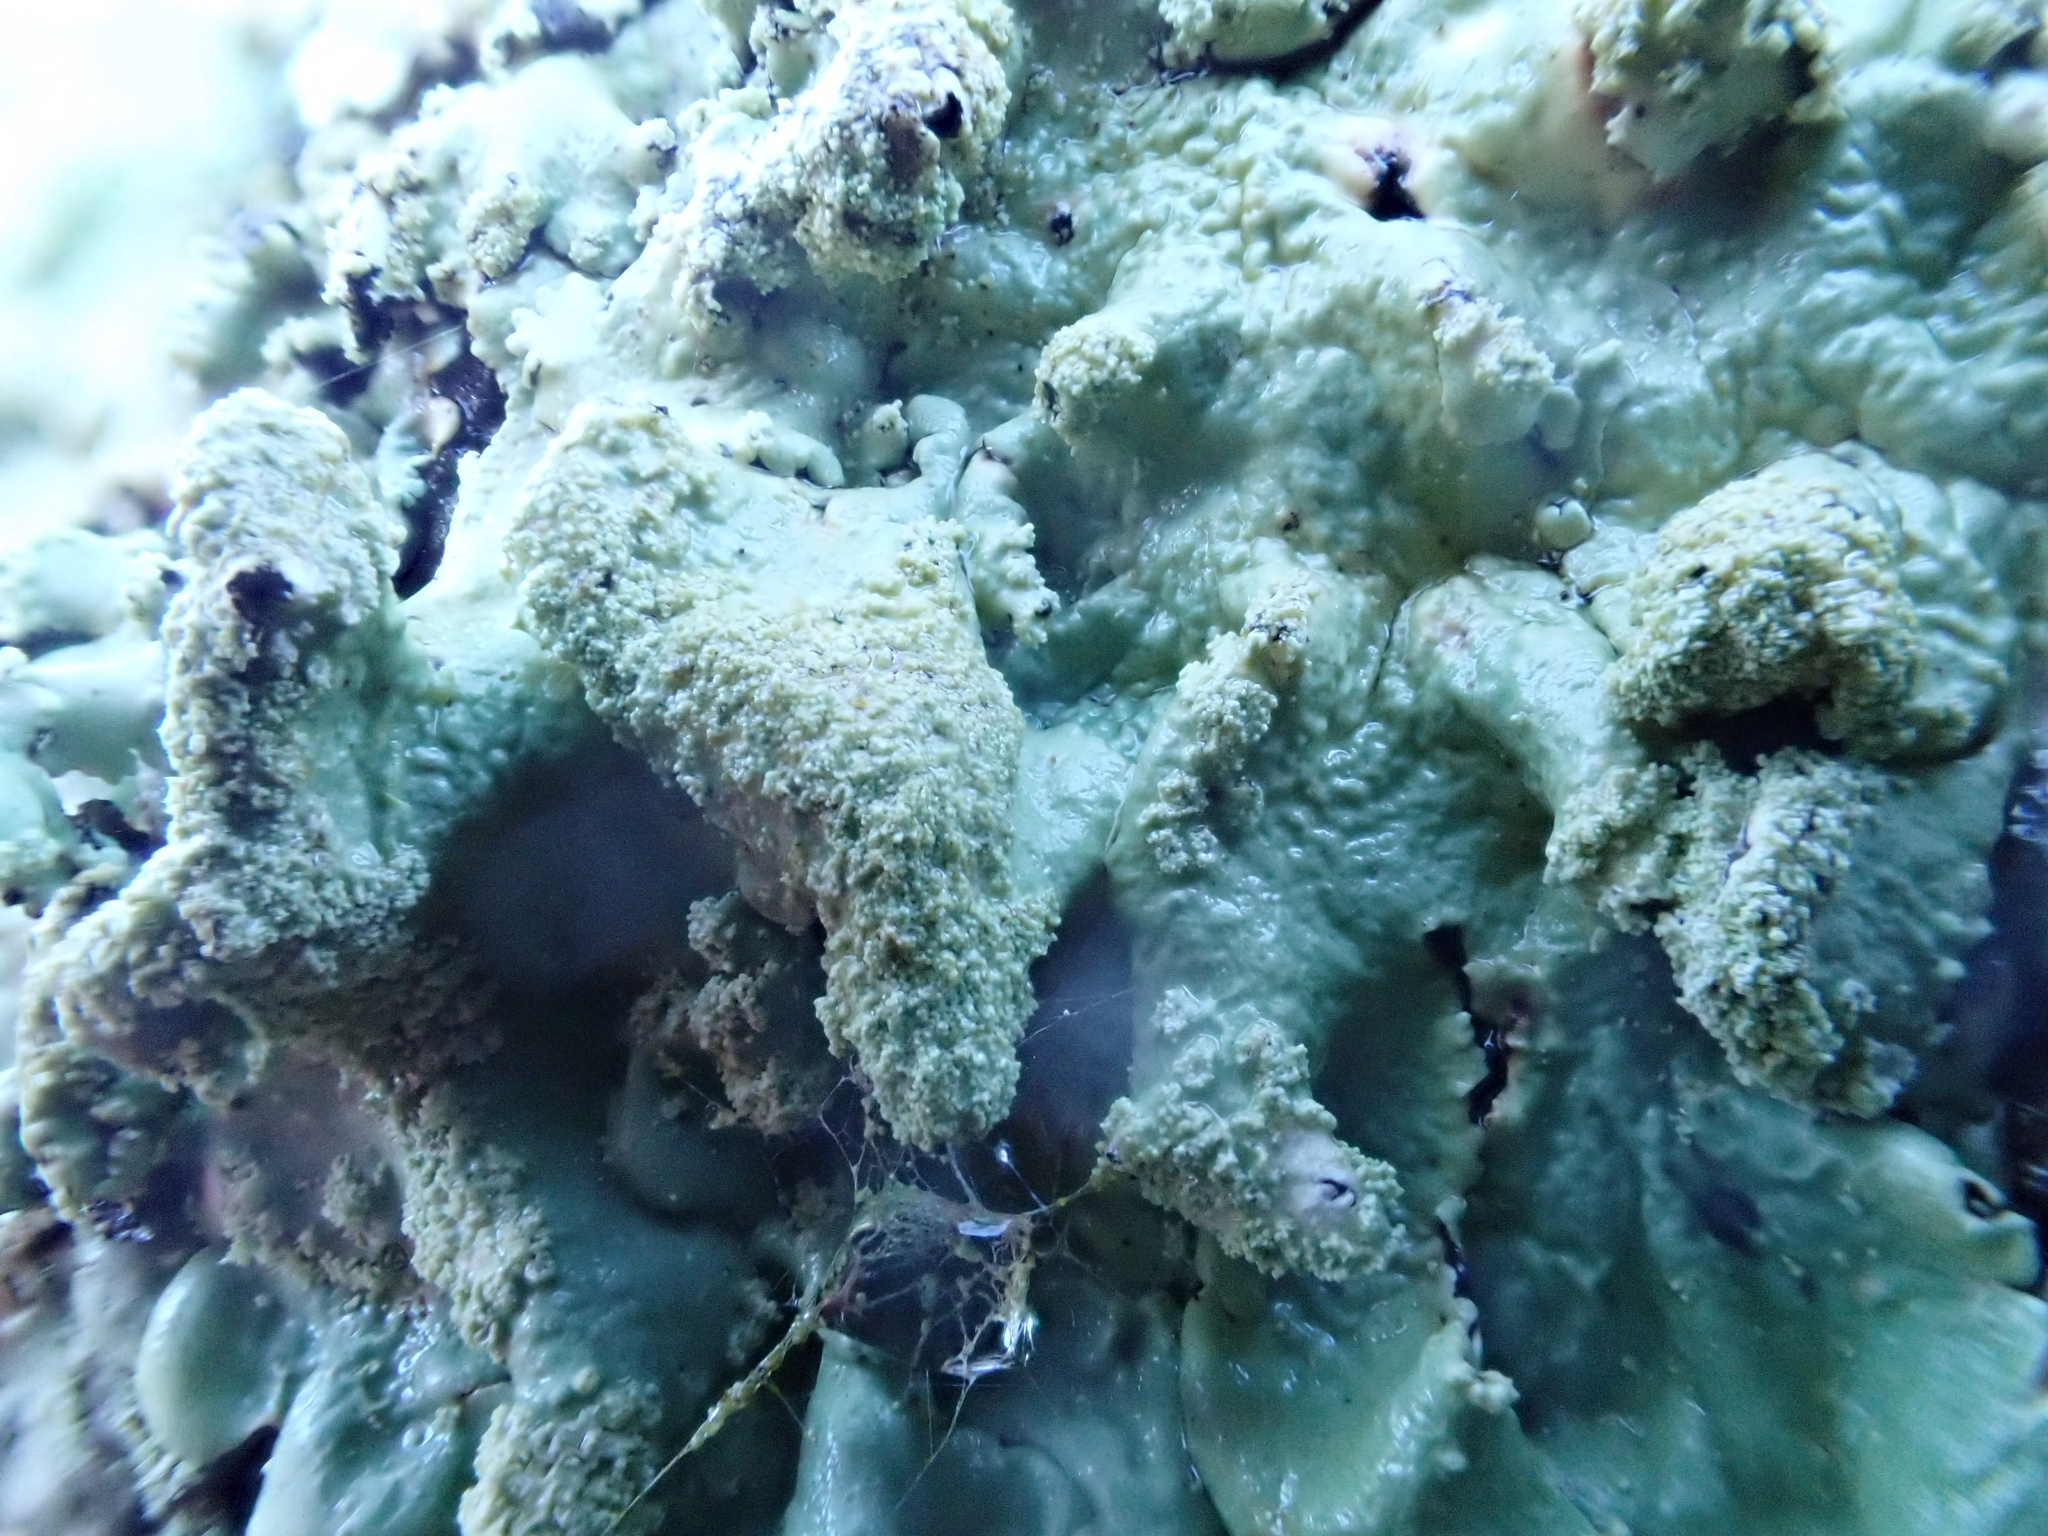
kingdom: Fungi
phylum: Ascomycota
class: Lecanoromycetes
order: Lecanorales
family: Parmeliaceae
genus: Flavoparmelia
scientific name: Flavoparmelia caperata
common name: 40-mile per hour lichen
